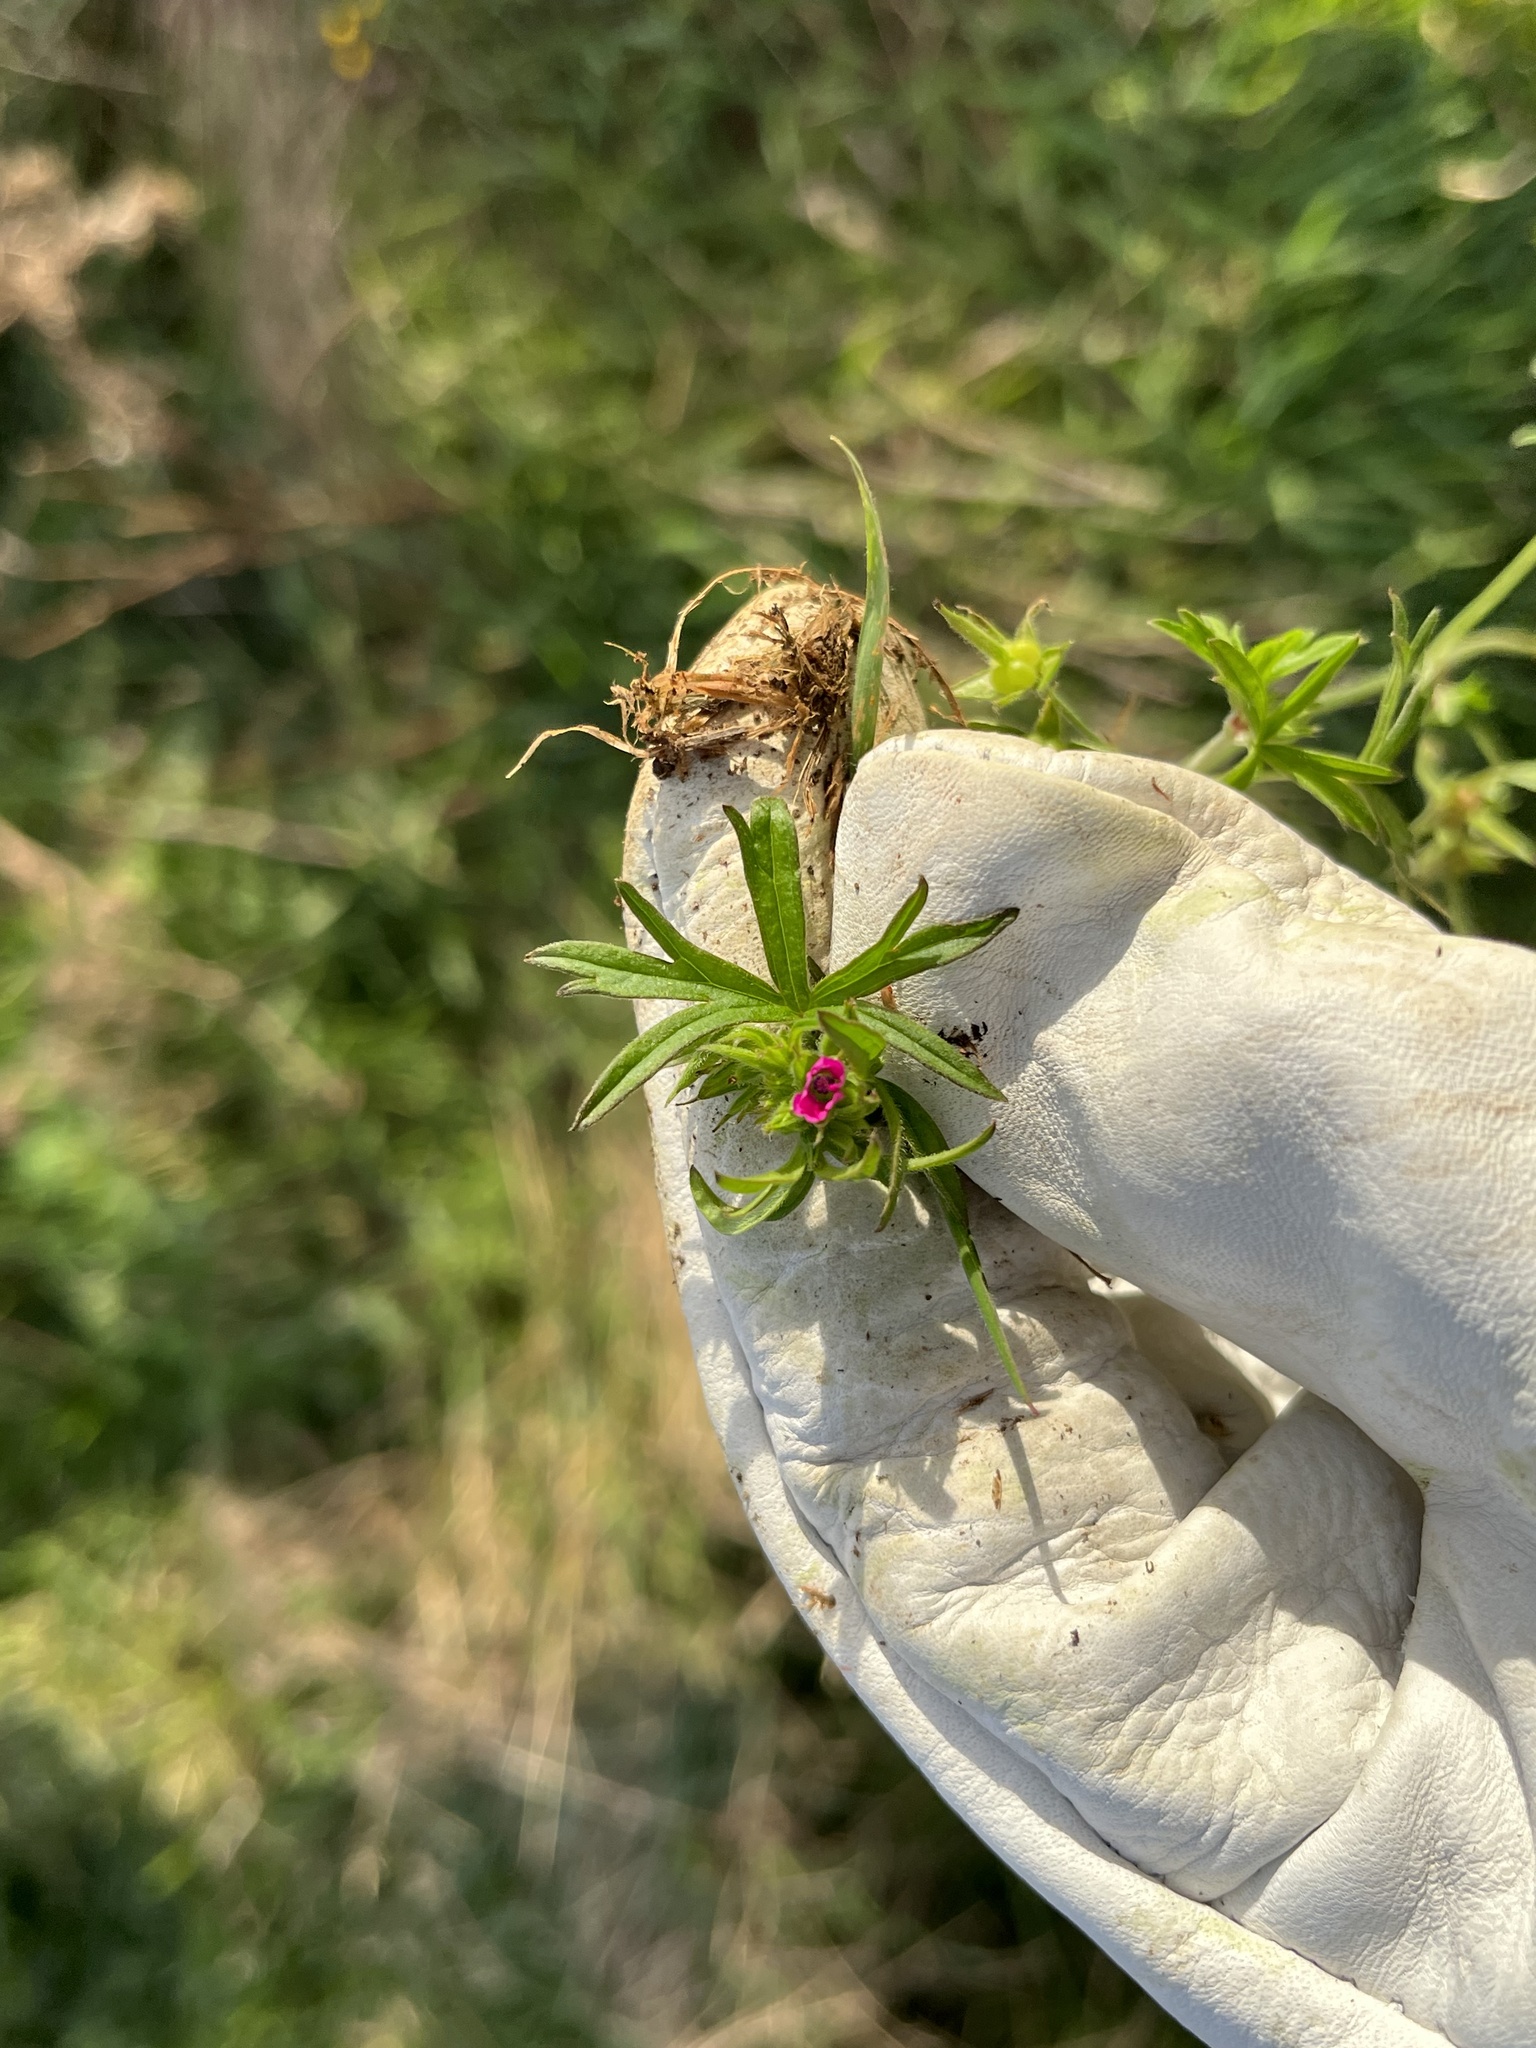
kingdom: Plantae
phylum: Tracheophyta
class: Magnoliopsida
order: Geraniales
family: Geraniaceae
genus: Geranium
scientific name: Geranium dissectum
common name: Cut-leaved crane's-bill
